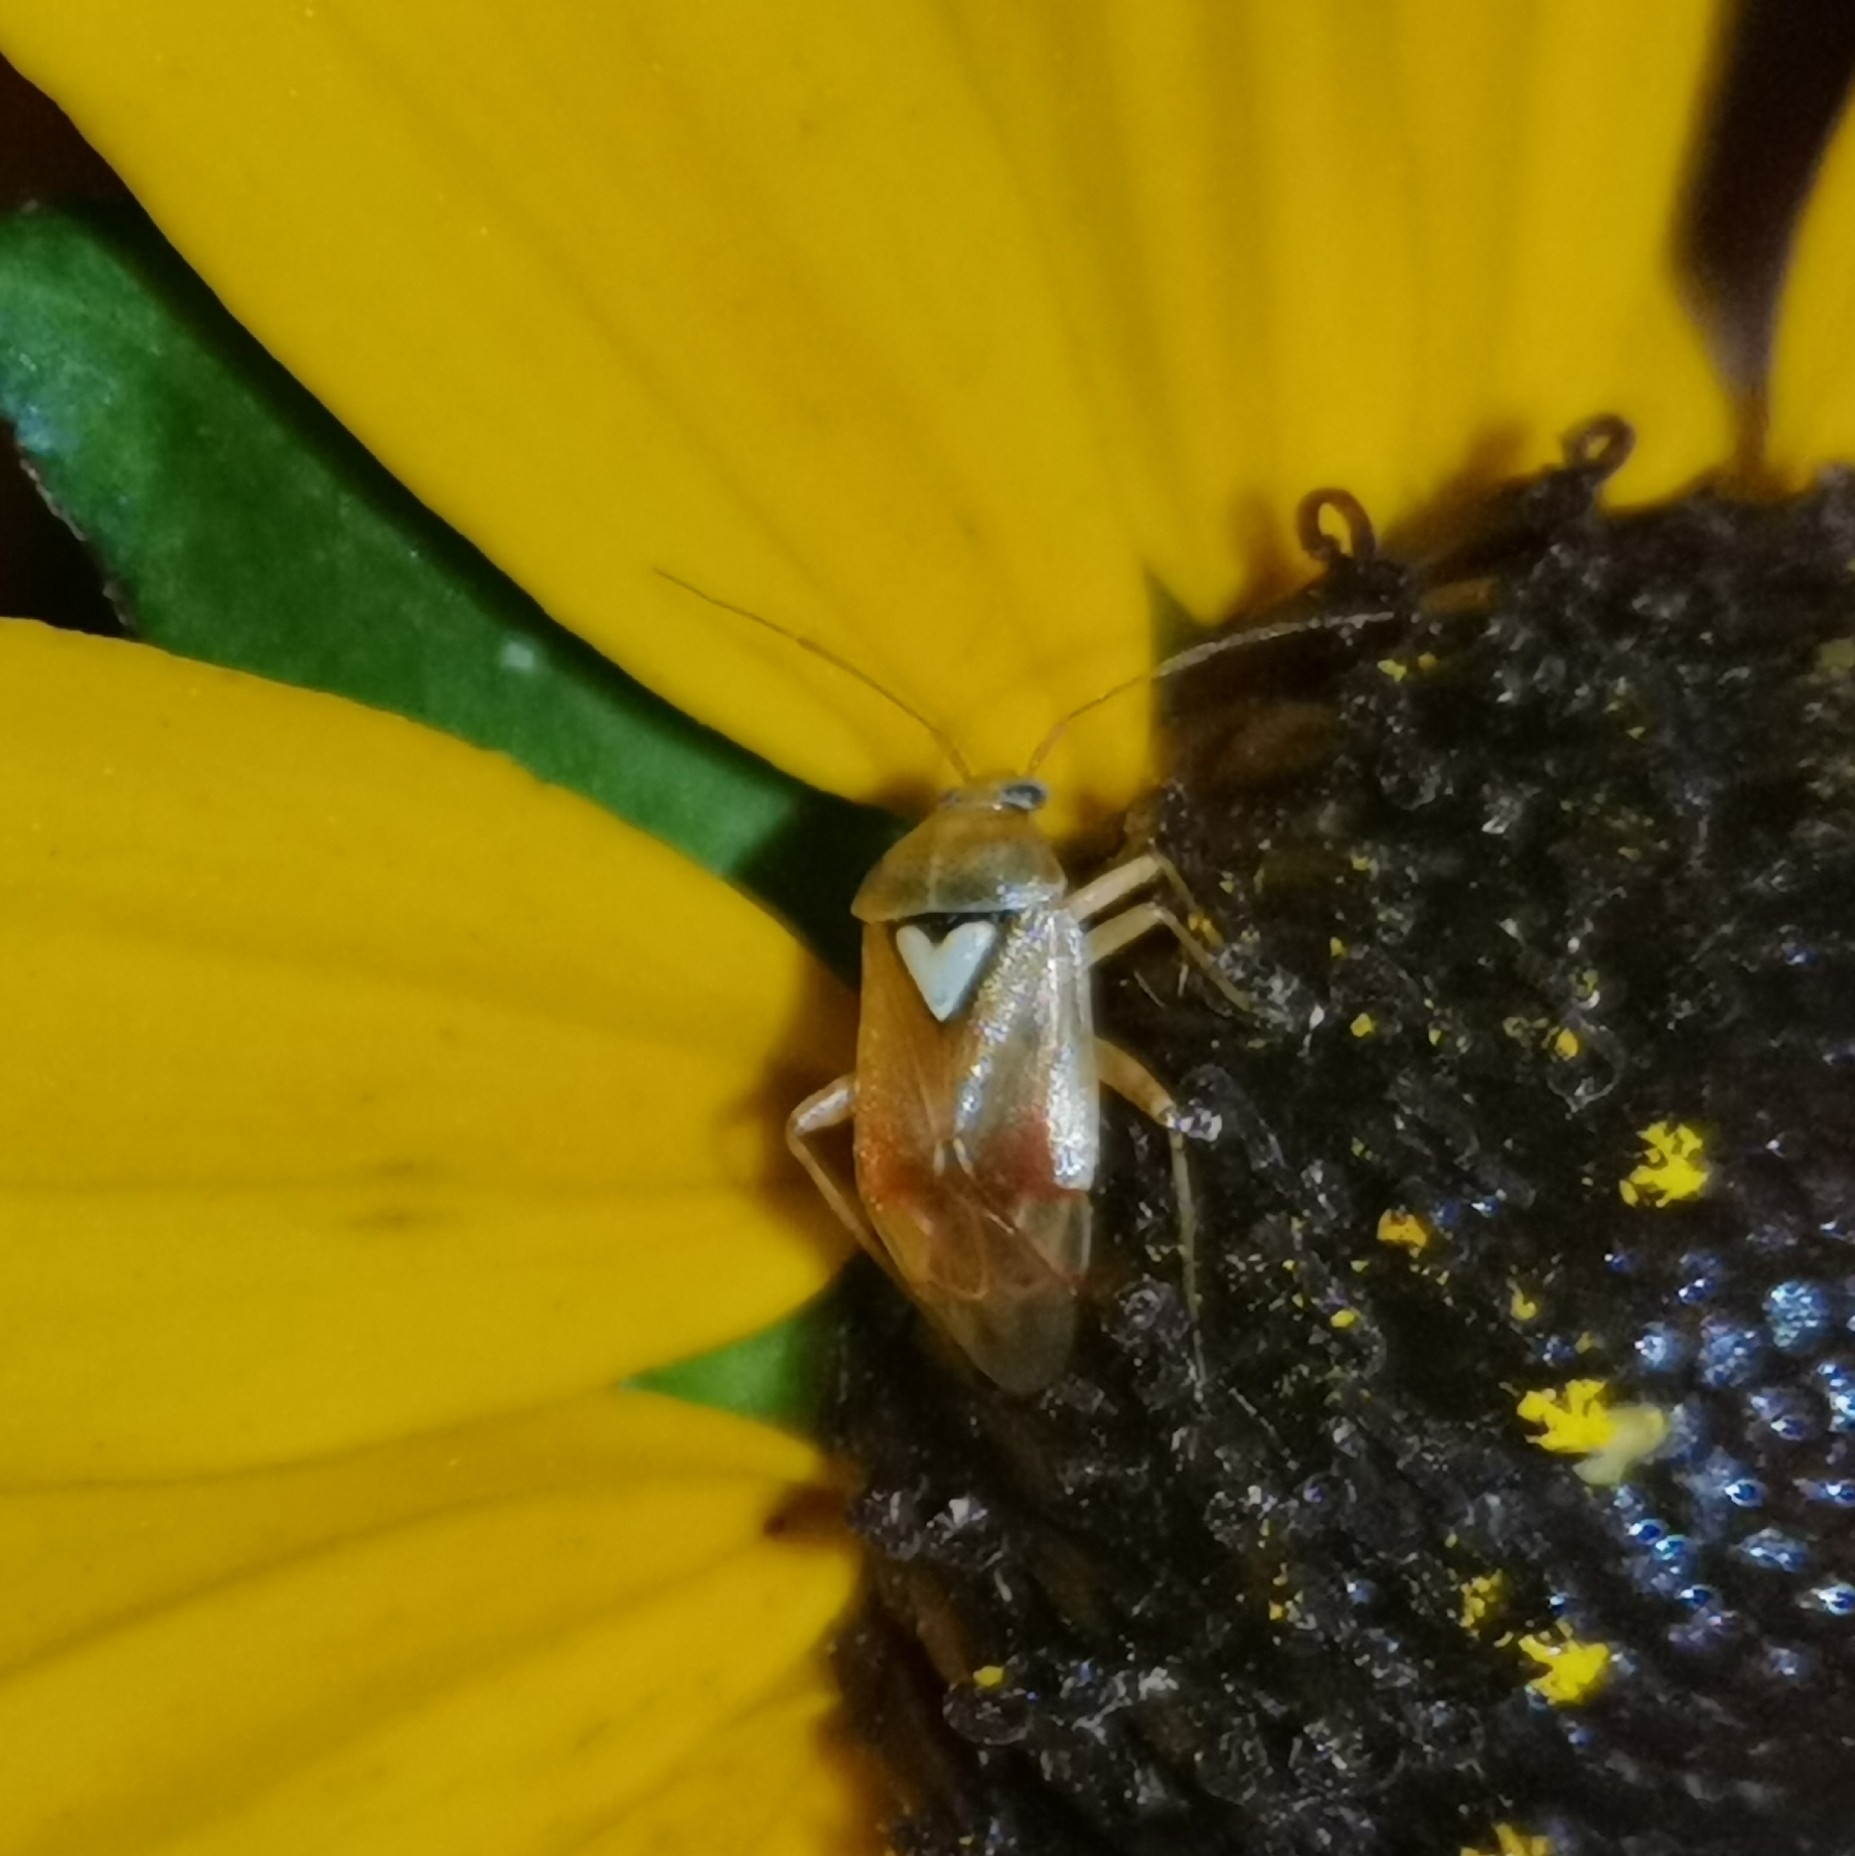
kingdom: Animalia
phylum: Arthropoda
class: Insecta
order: Hemiptera
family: Miridae
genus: Lygus
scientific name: Lygus pratensis
